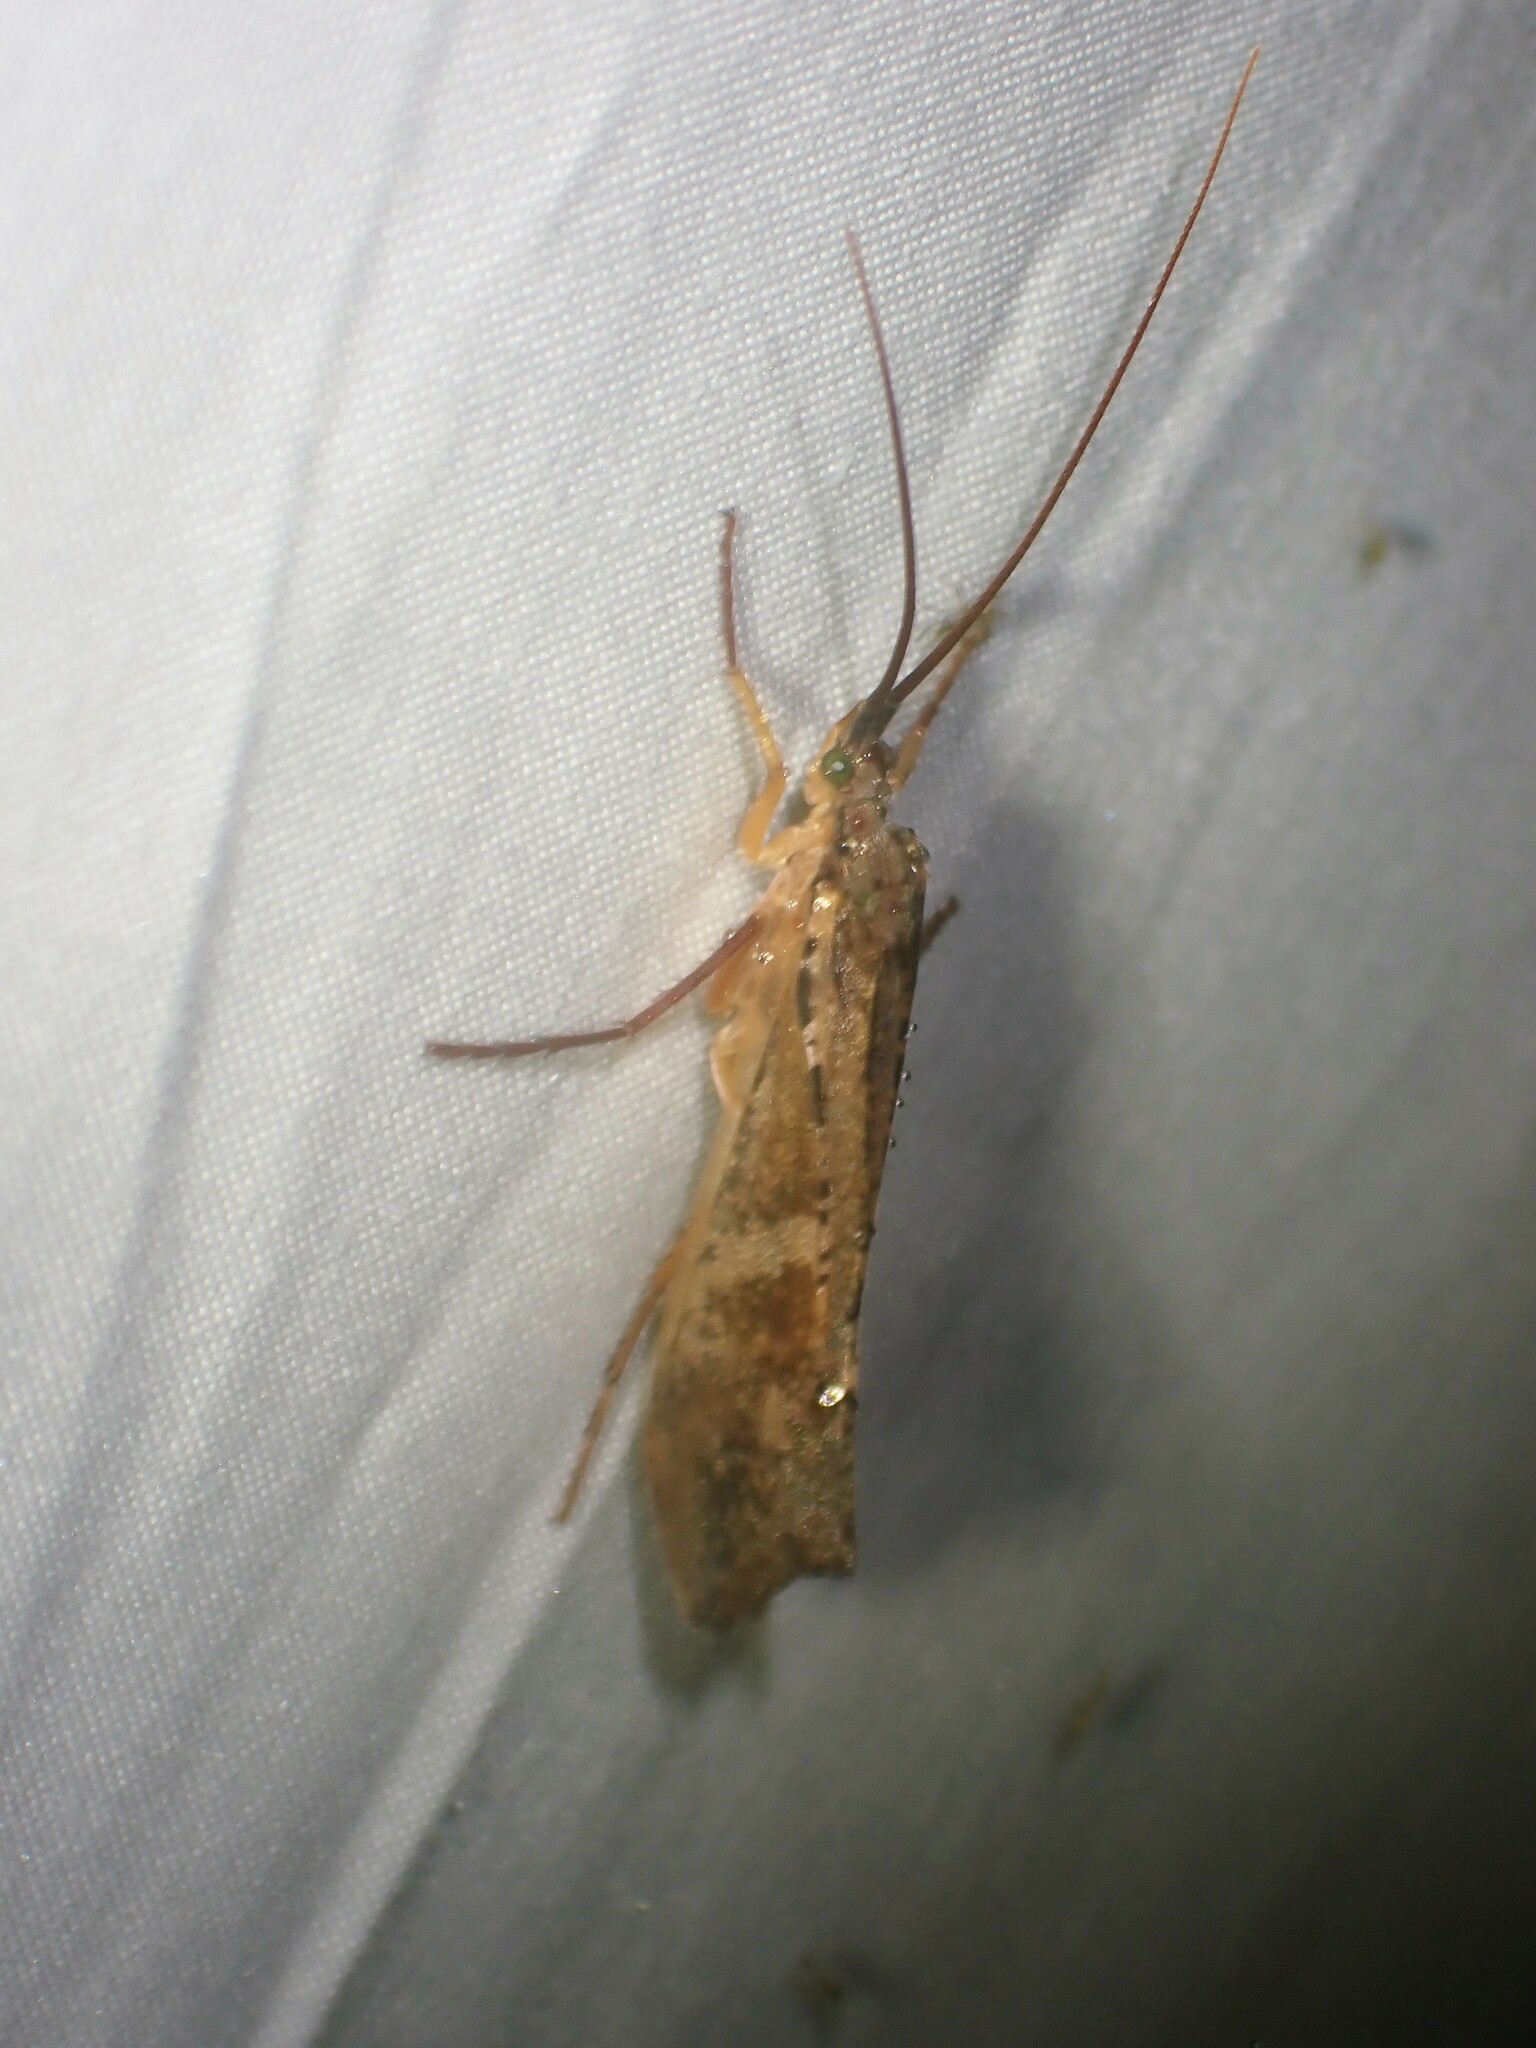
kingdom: Animalia
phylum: Arthropoda
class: Insecta
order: Trichoptera
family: Limnephilidae
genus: Nemotaulius
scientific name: Nemotaulius hostilis
